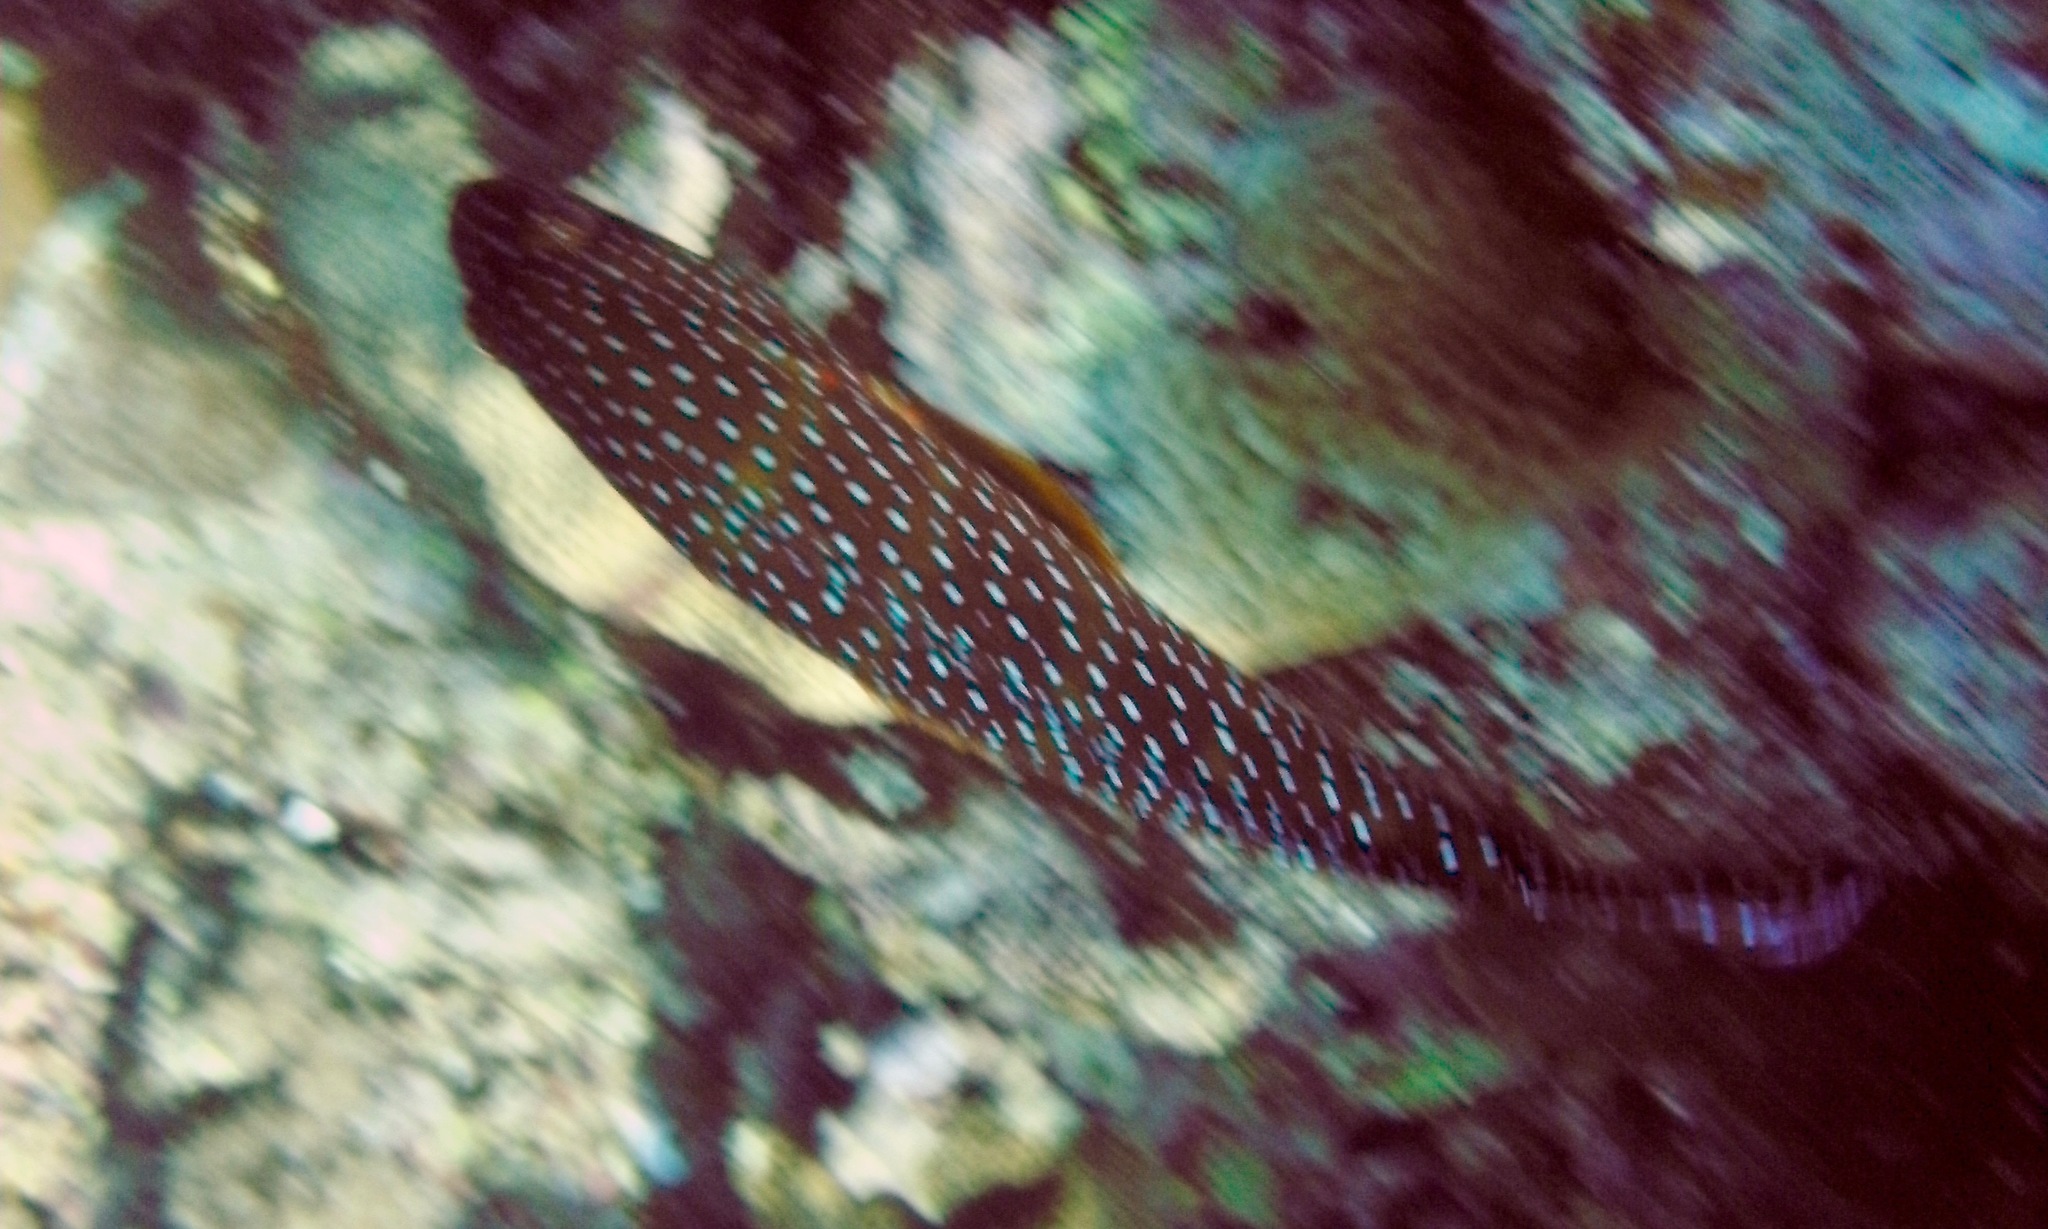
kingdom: Animalia
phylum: Chordata
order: Perciformes
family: Serranidae
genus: Cephalopholis
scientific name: Cephalopholis miniata
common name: Coral hind
